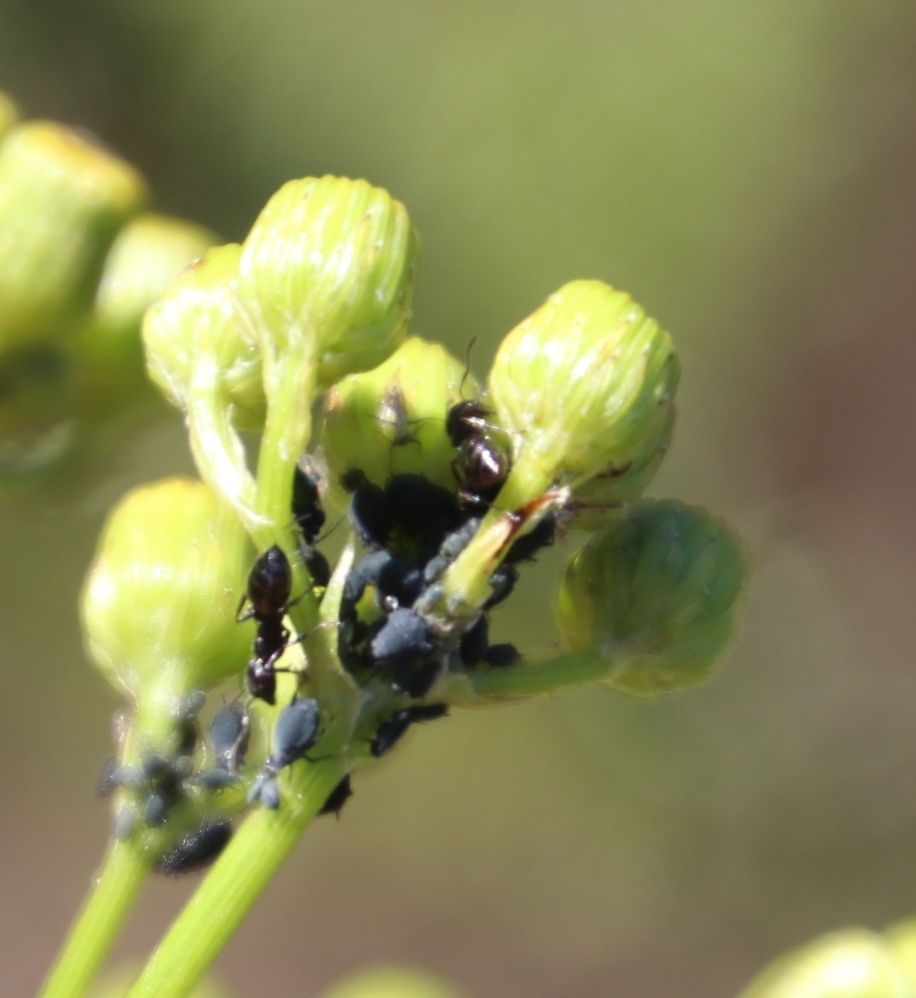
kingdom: Plantae
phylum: Tracheophyta
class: Magnoliopsida
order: Asterales
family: Asteraceae
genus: Senecio
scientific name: Senecio pterophorus
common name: Shoddy ragwort
